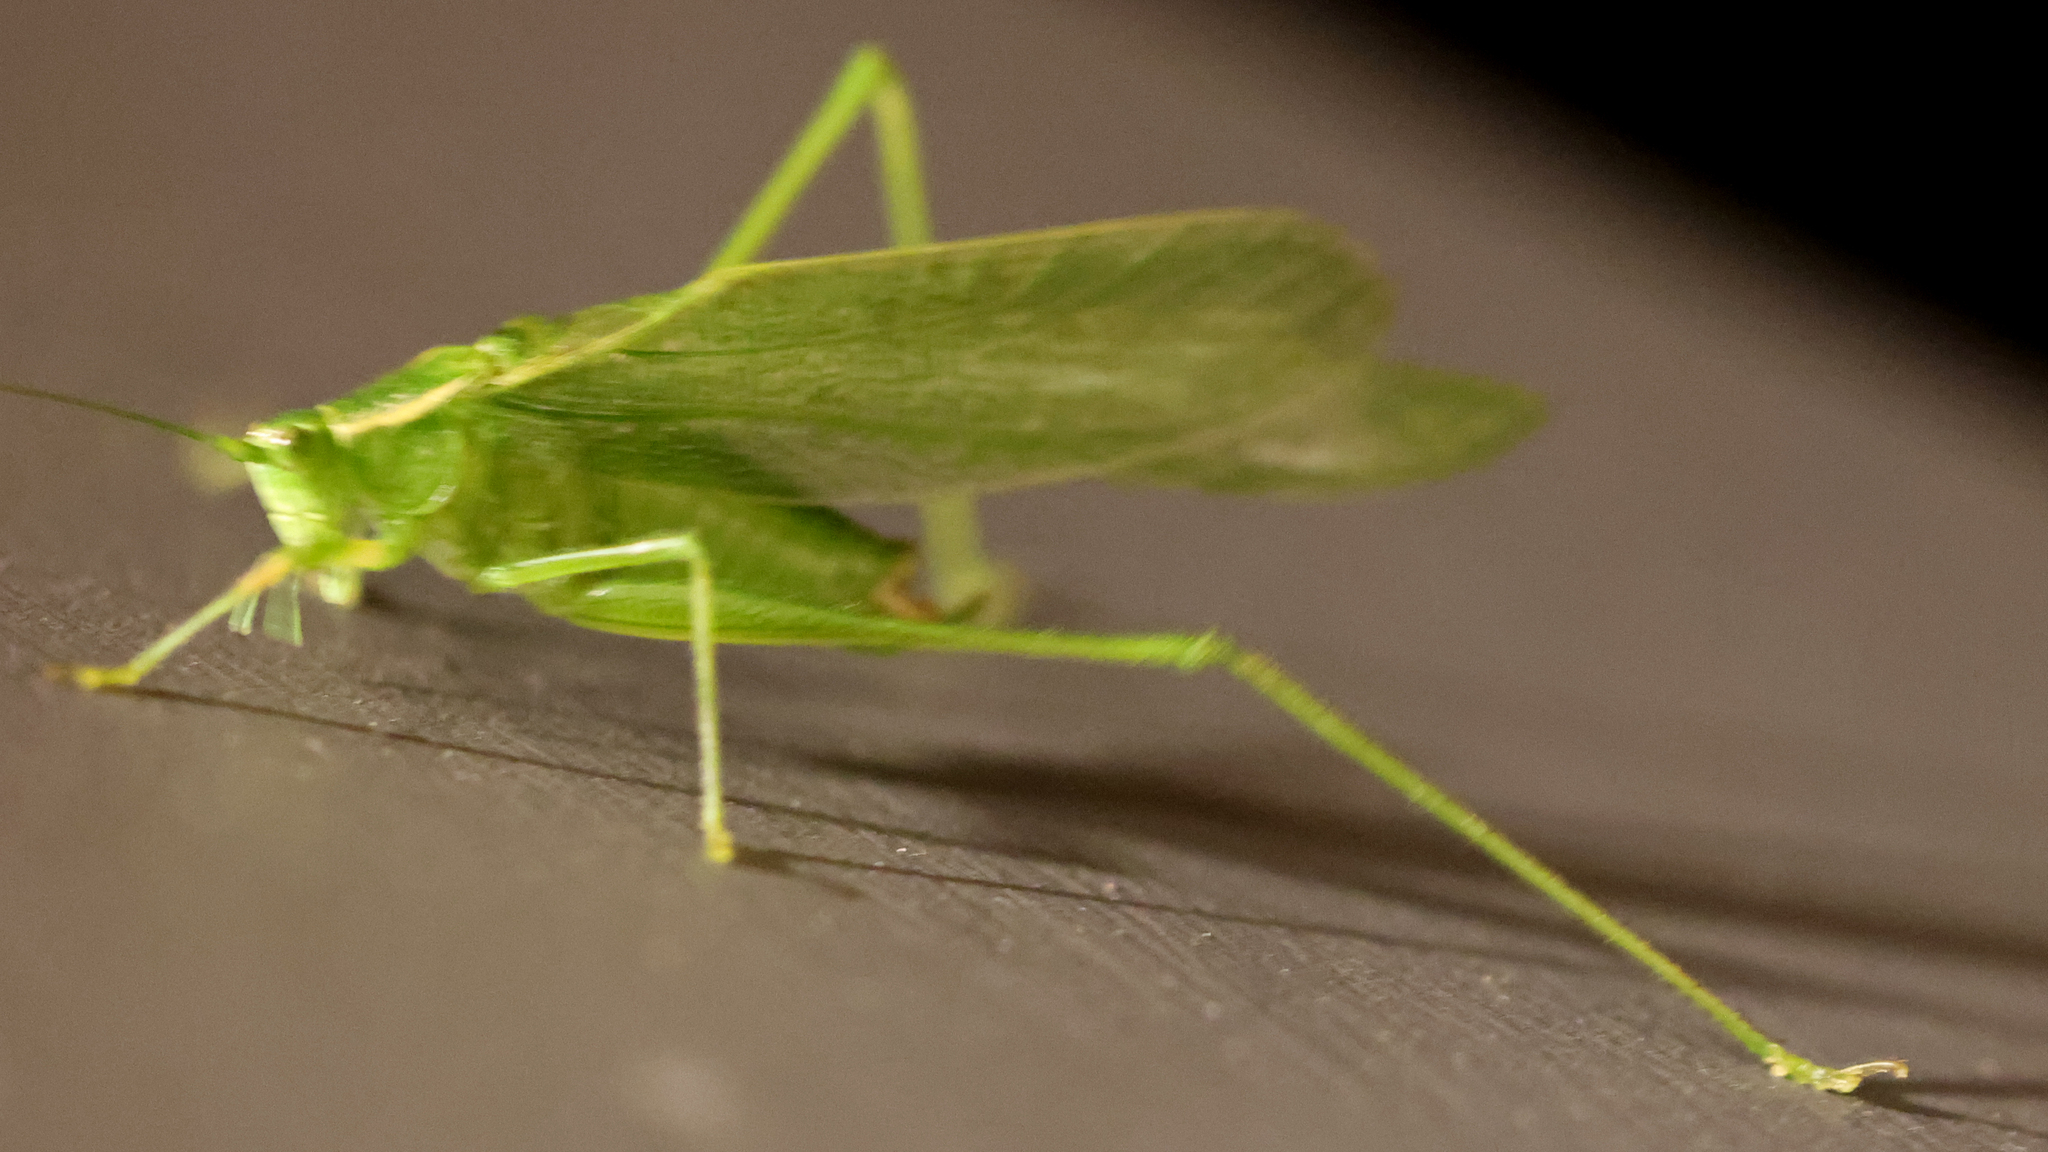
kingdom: Animalia
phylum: Arthropoda
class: Insecta
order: Orthoptera
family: Tettigoniidae
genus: Scudderia
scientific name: Scudderia septentrionalis
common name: Northern bush-katydid
